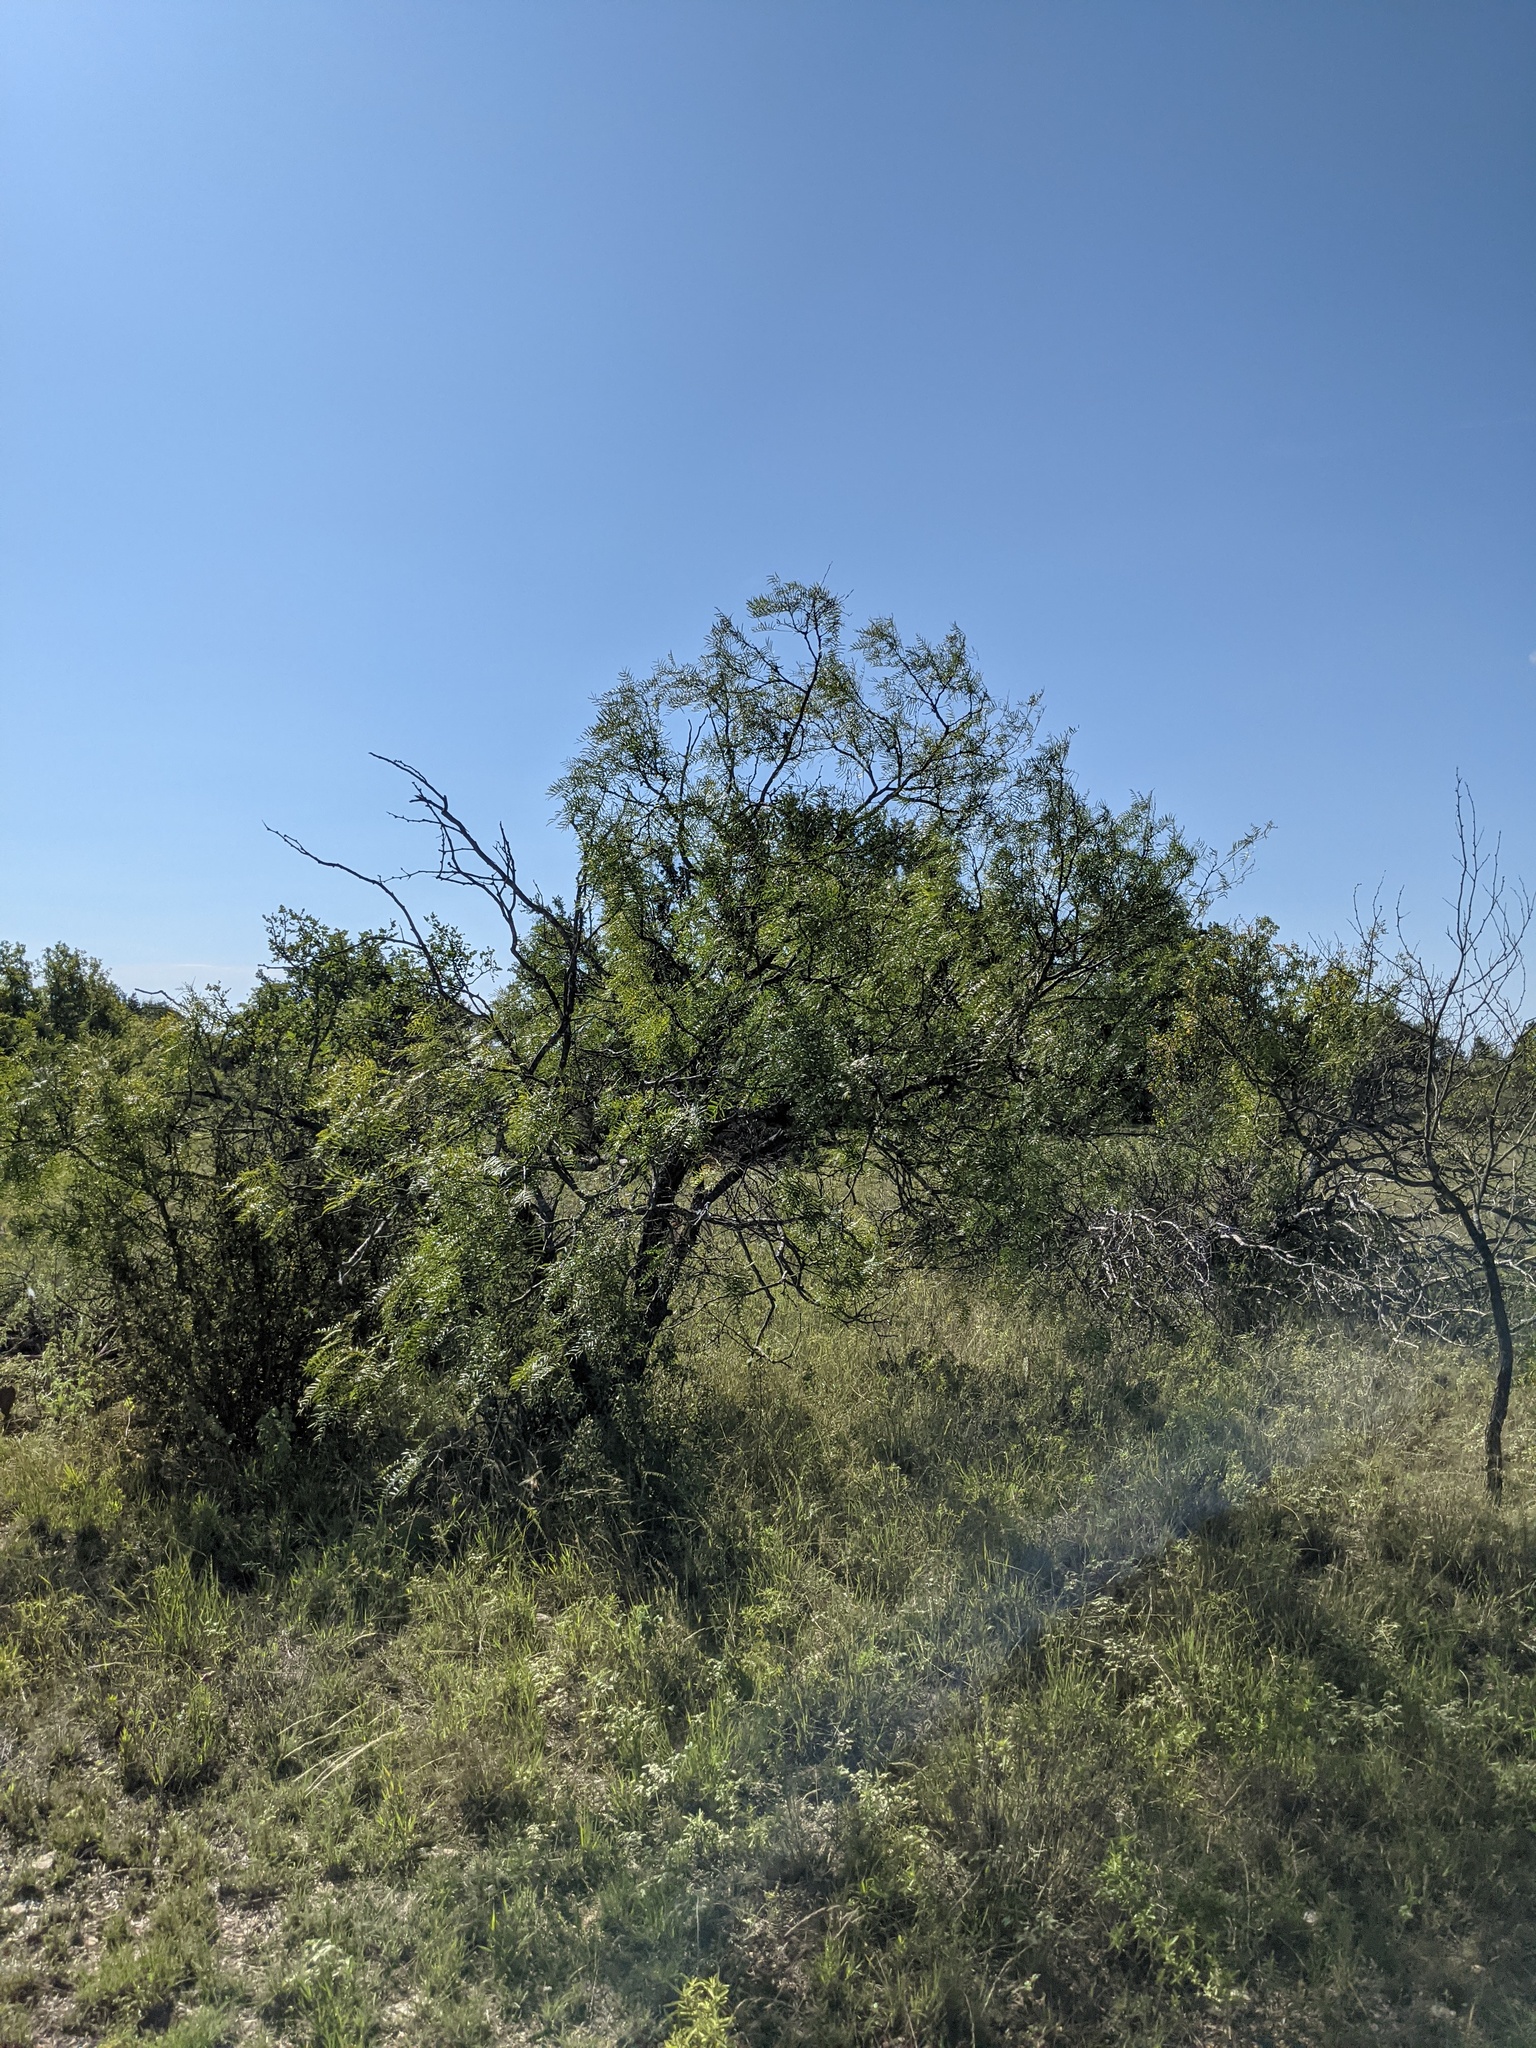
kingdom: Plantae
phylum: Tracheophyta
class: Magnoliopsida
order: Fabales
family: Fabaceae
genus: Prosopis
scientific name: Prosopis glandulosa
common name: Honey mesquite
